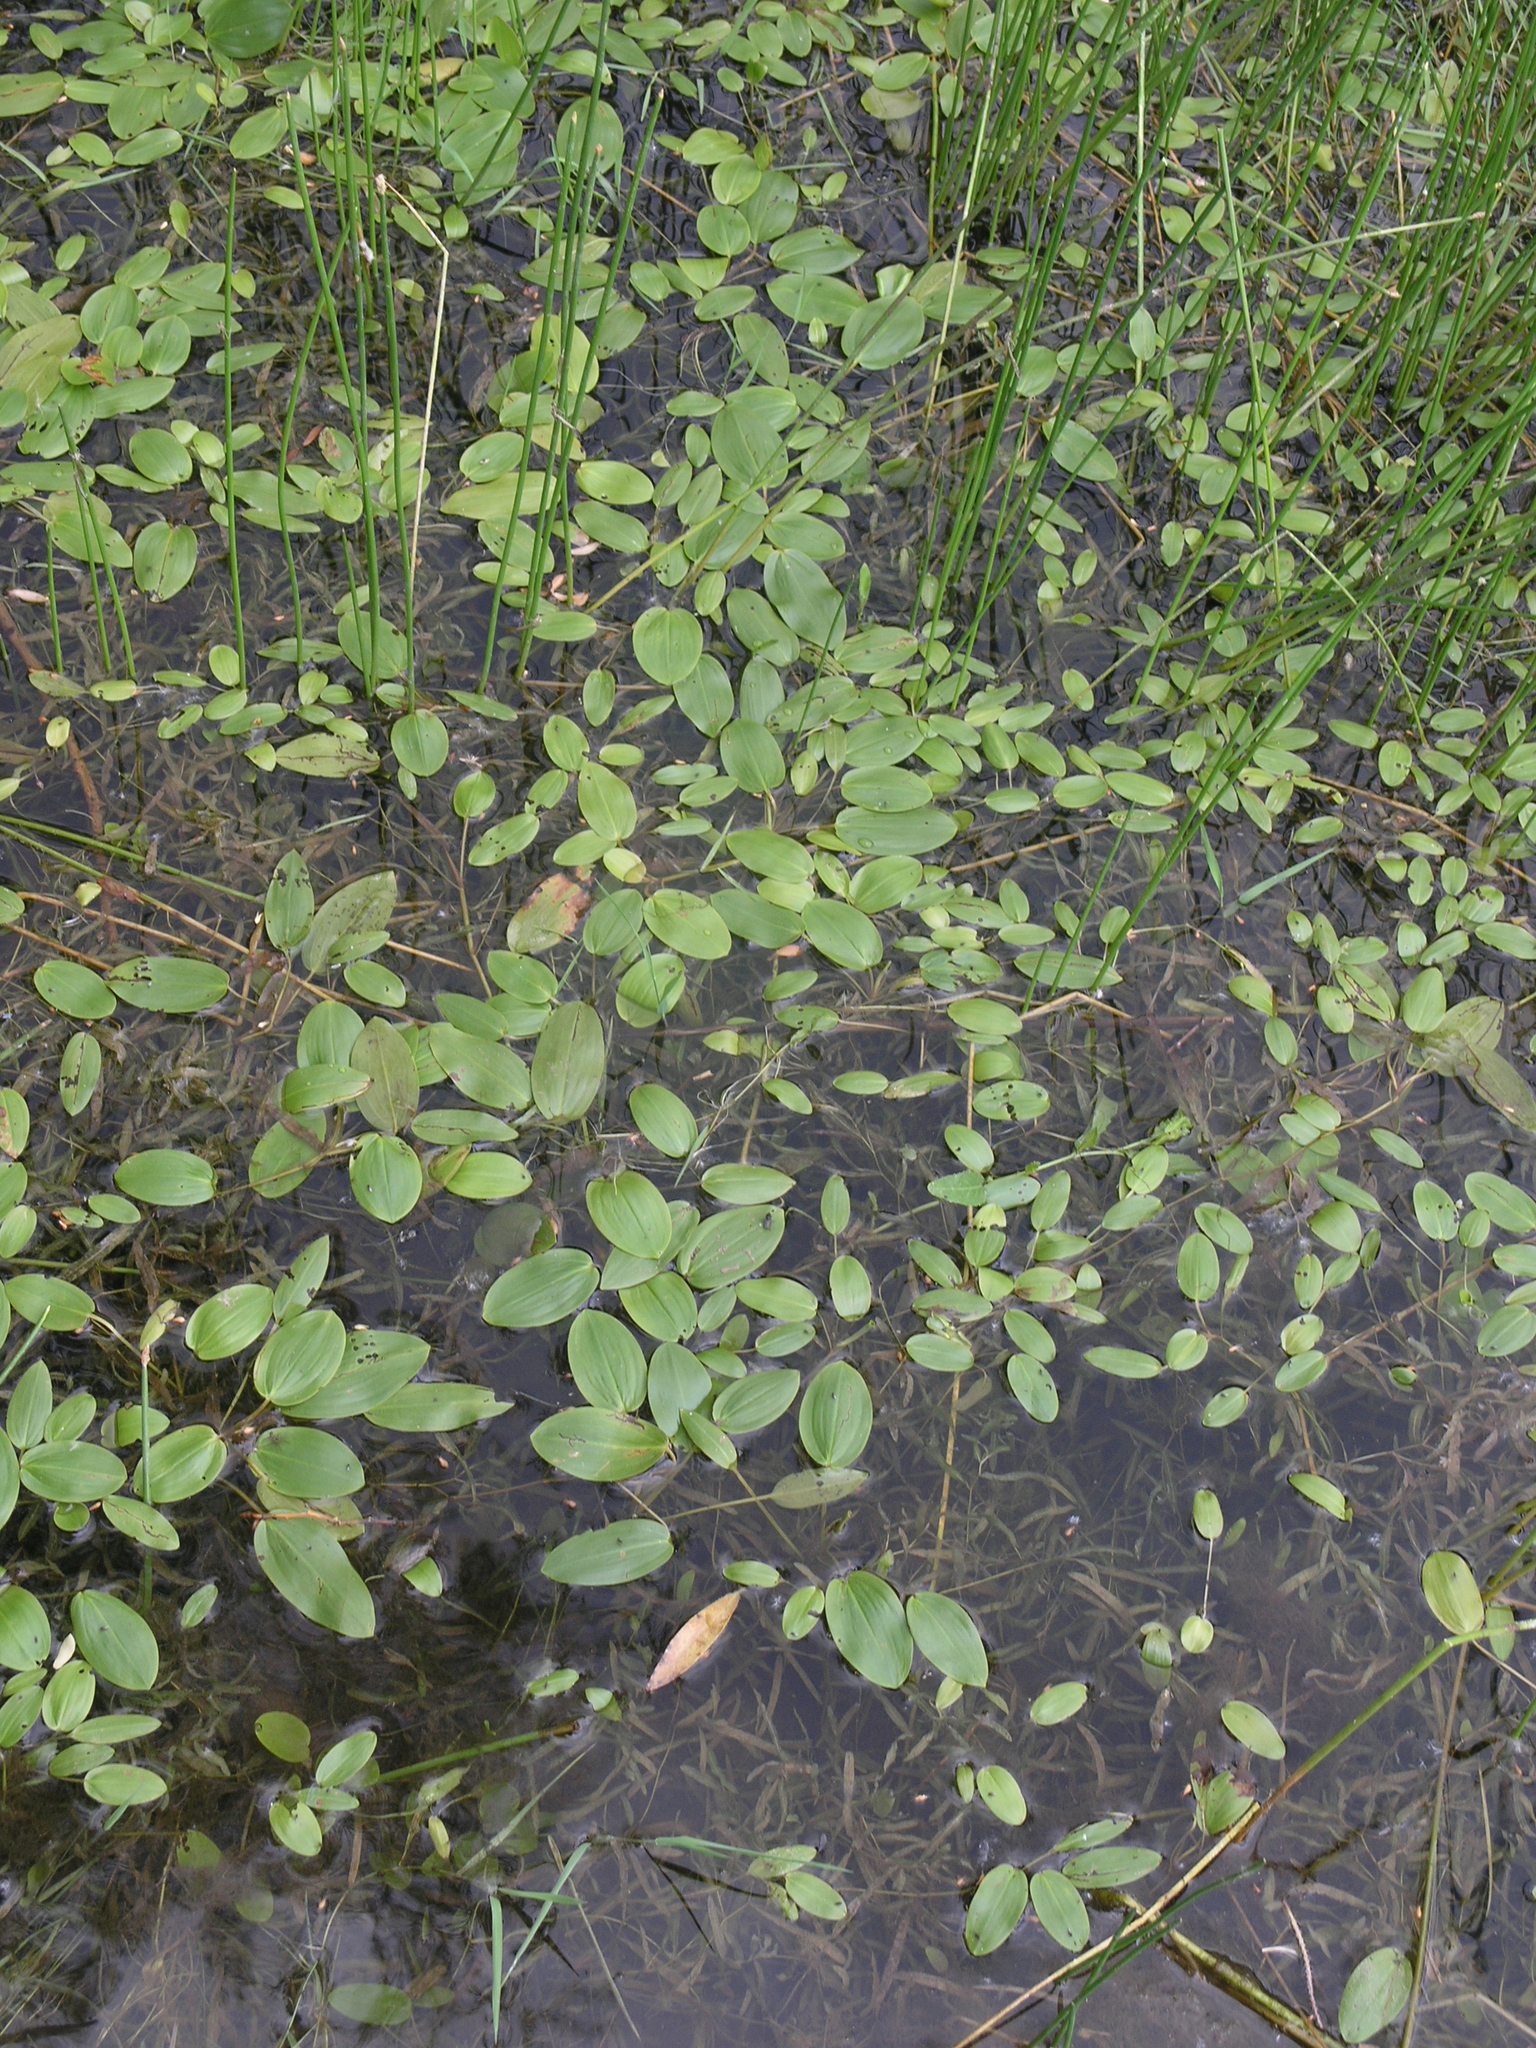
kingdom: Plantae
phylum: Tracheophyta
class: Liliopsida
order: Alismatales
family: Potamogetonaceae
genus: Potamogeton
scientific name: Potamogeton gramineus
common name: Various-leaved pondweed
